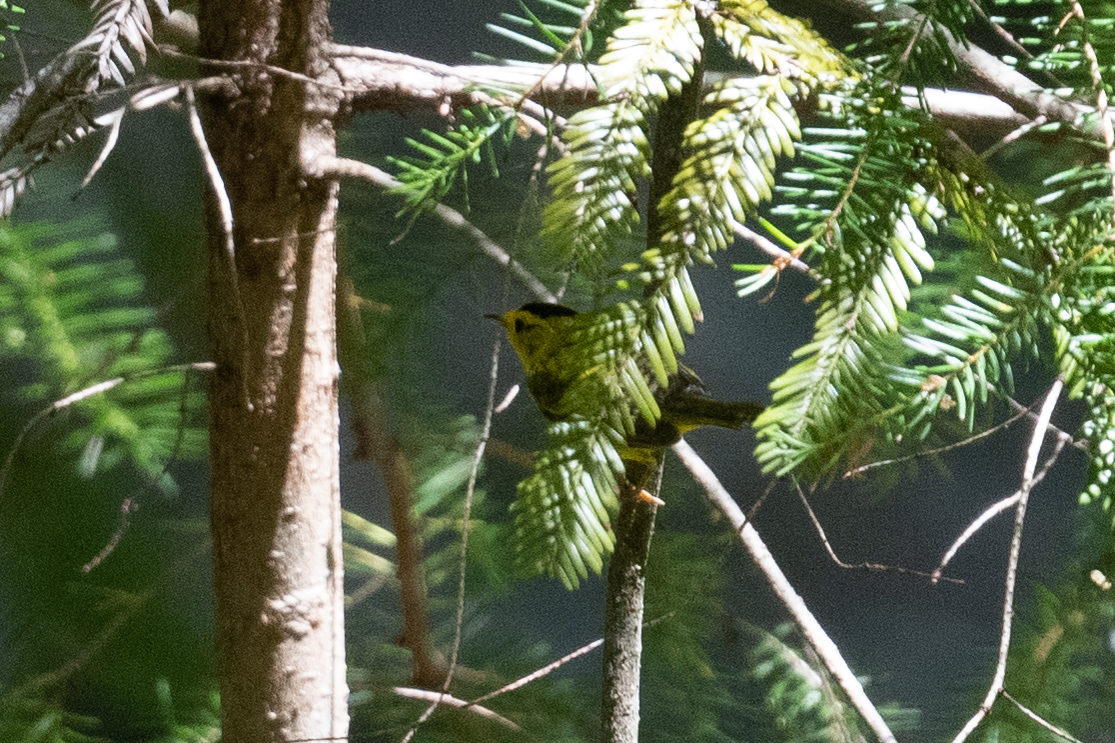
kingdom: Animalia
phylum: Chordata
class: Aves
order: Passeriformes
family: Parulidae
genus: Cardellina
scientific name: Cardellina pusilla
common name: Wilson's warbler
